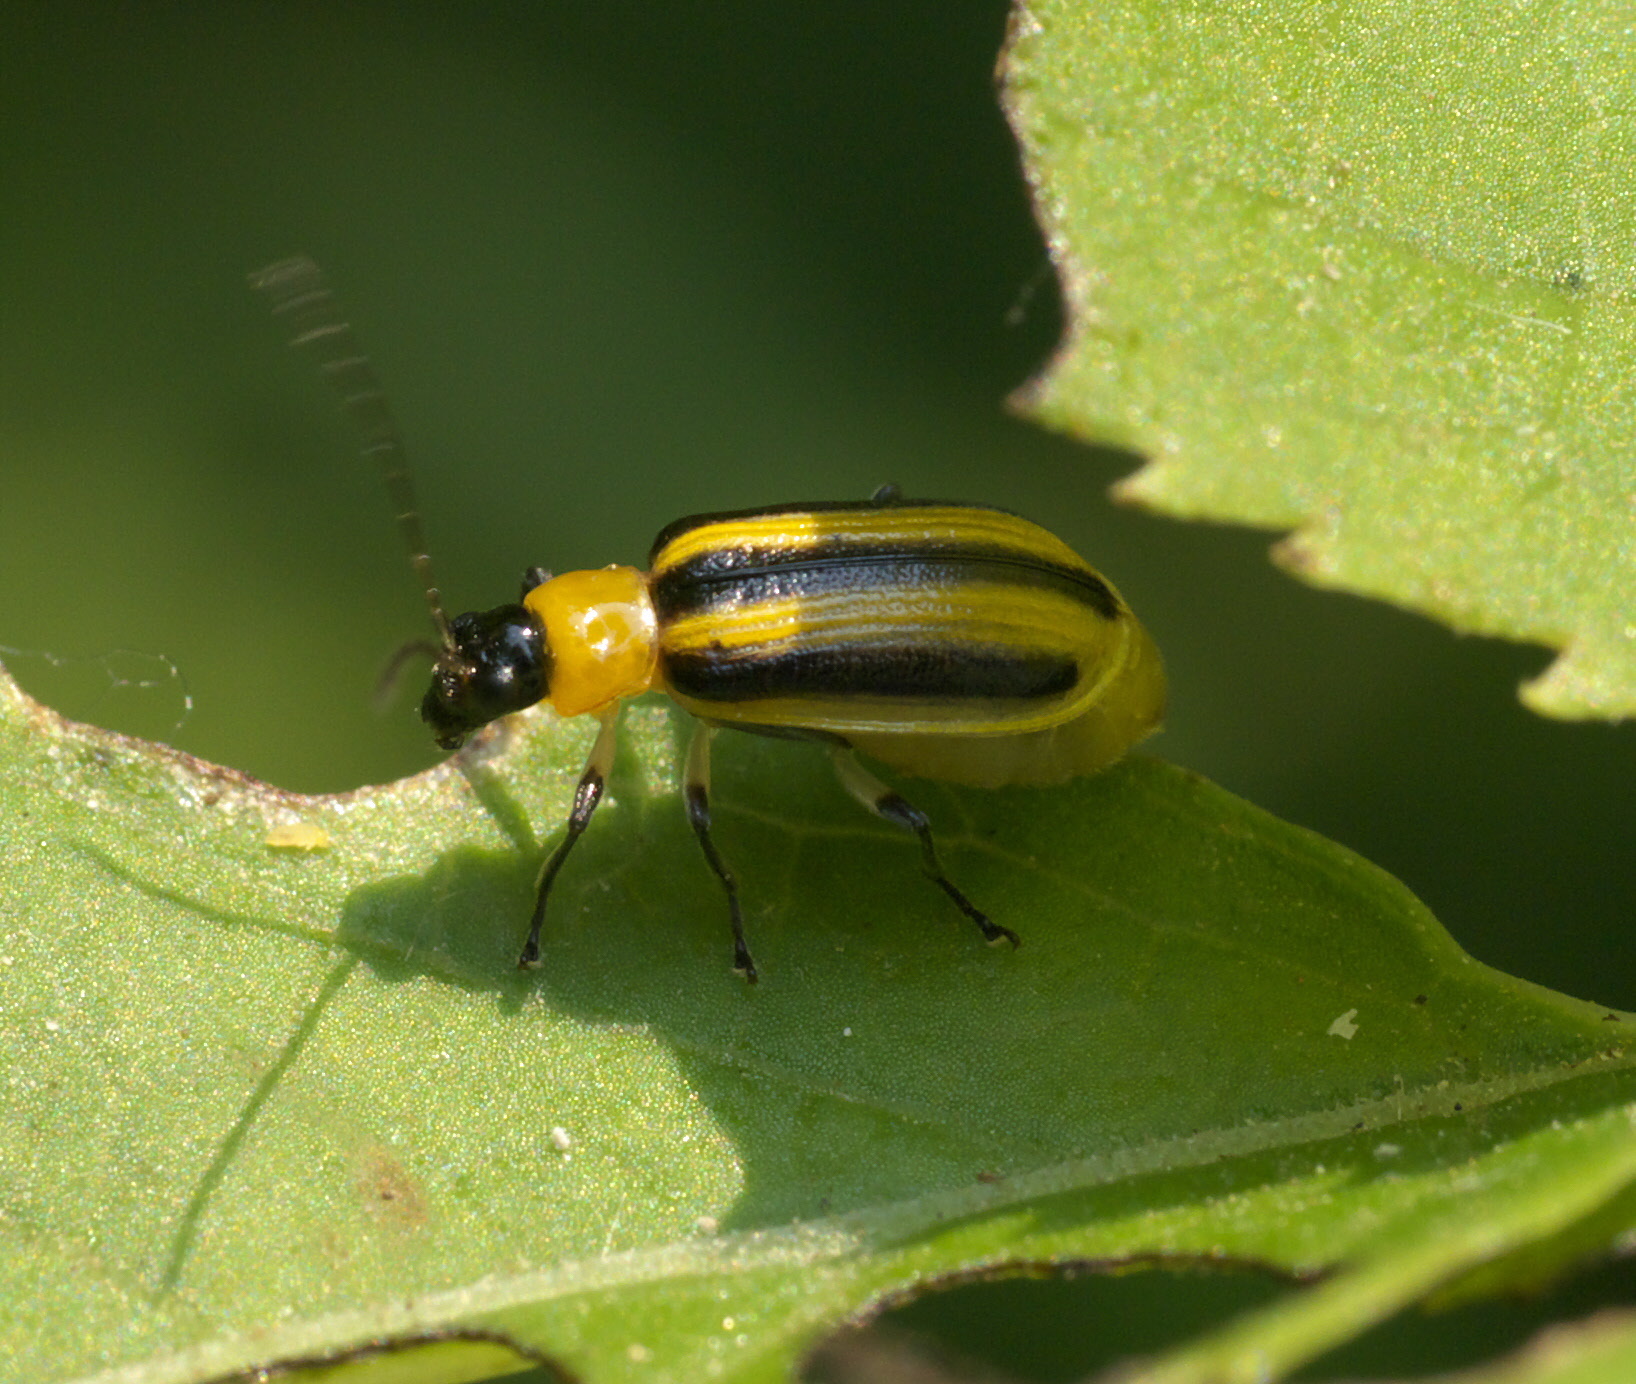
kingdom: Animalia
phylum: Arthropoda
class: Insecta
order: Coleoptera
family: Chrysomelidae
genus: Acalymma
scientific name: Acalymma blandulum
